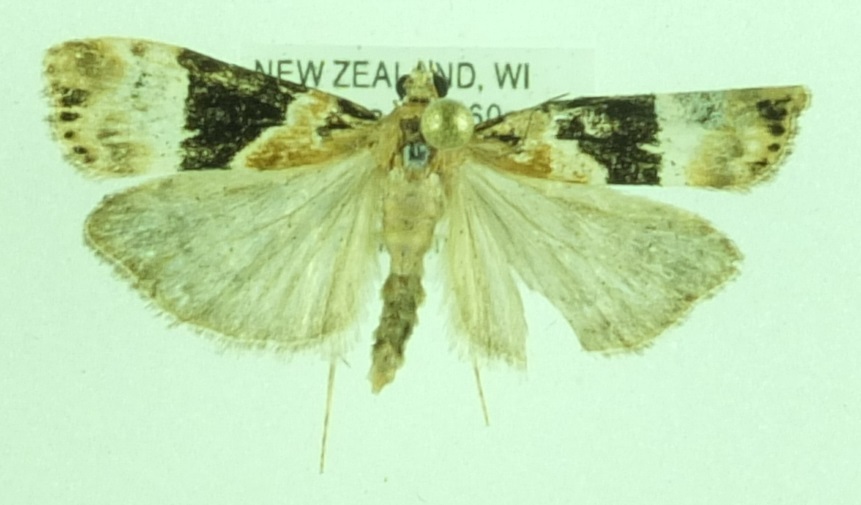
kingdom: Animalia
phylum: Arthropoda
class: Insecta
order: Lepidoptera
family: Crambidae
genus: Eudonia
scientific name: Eudonia aspidota
